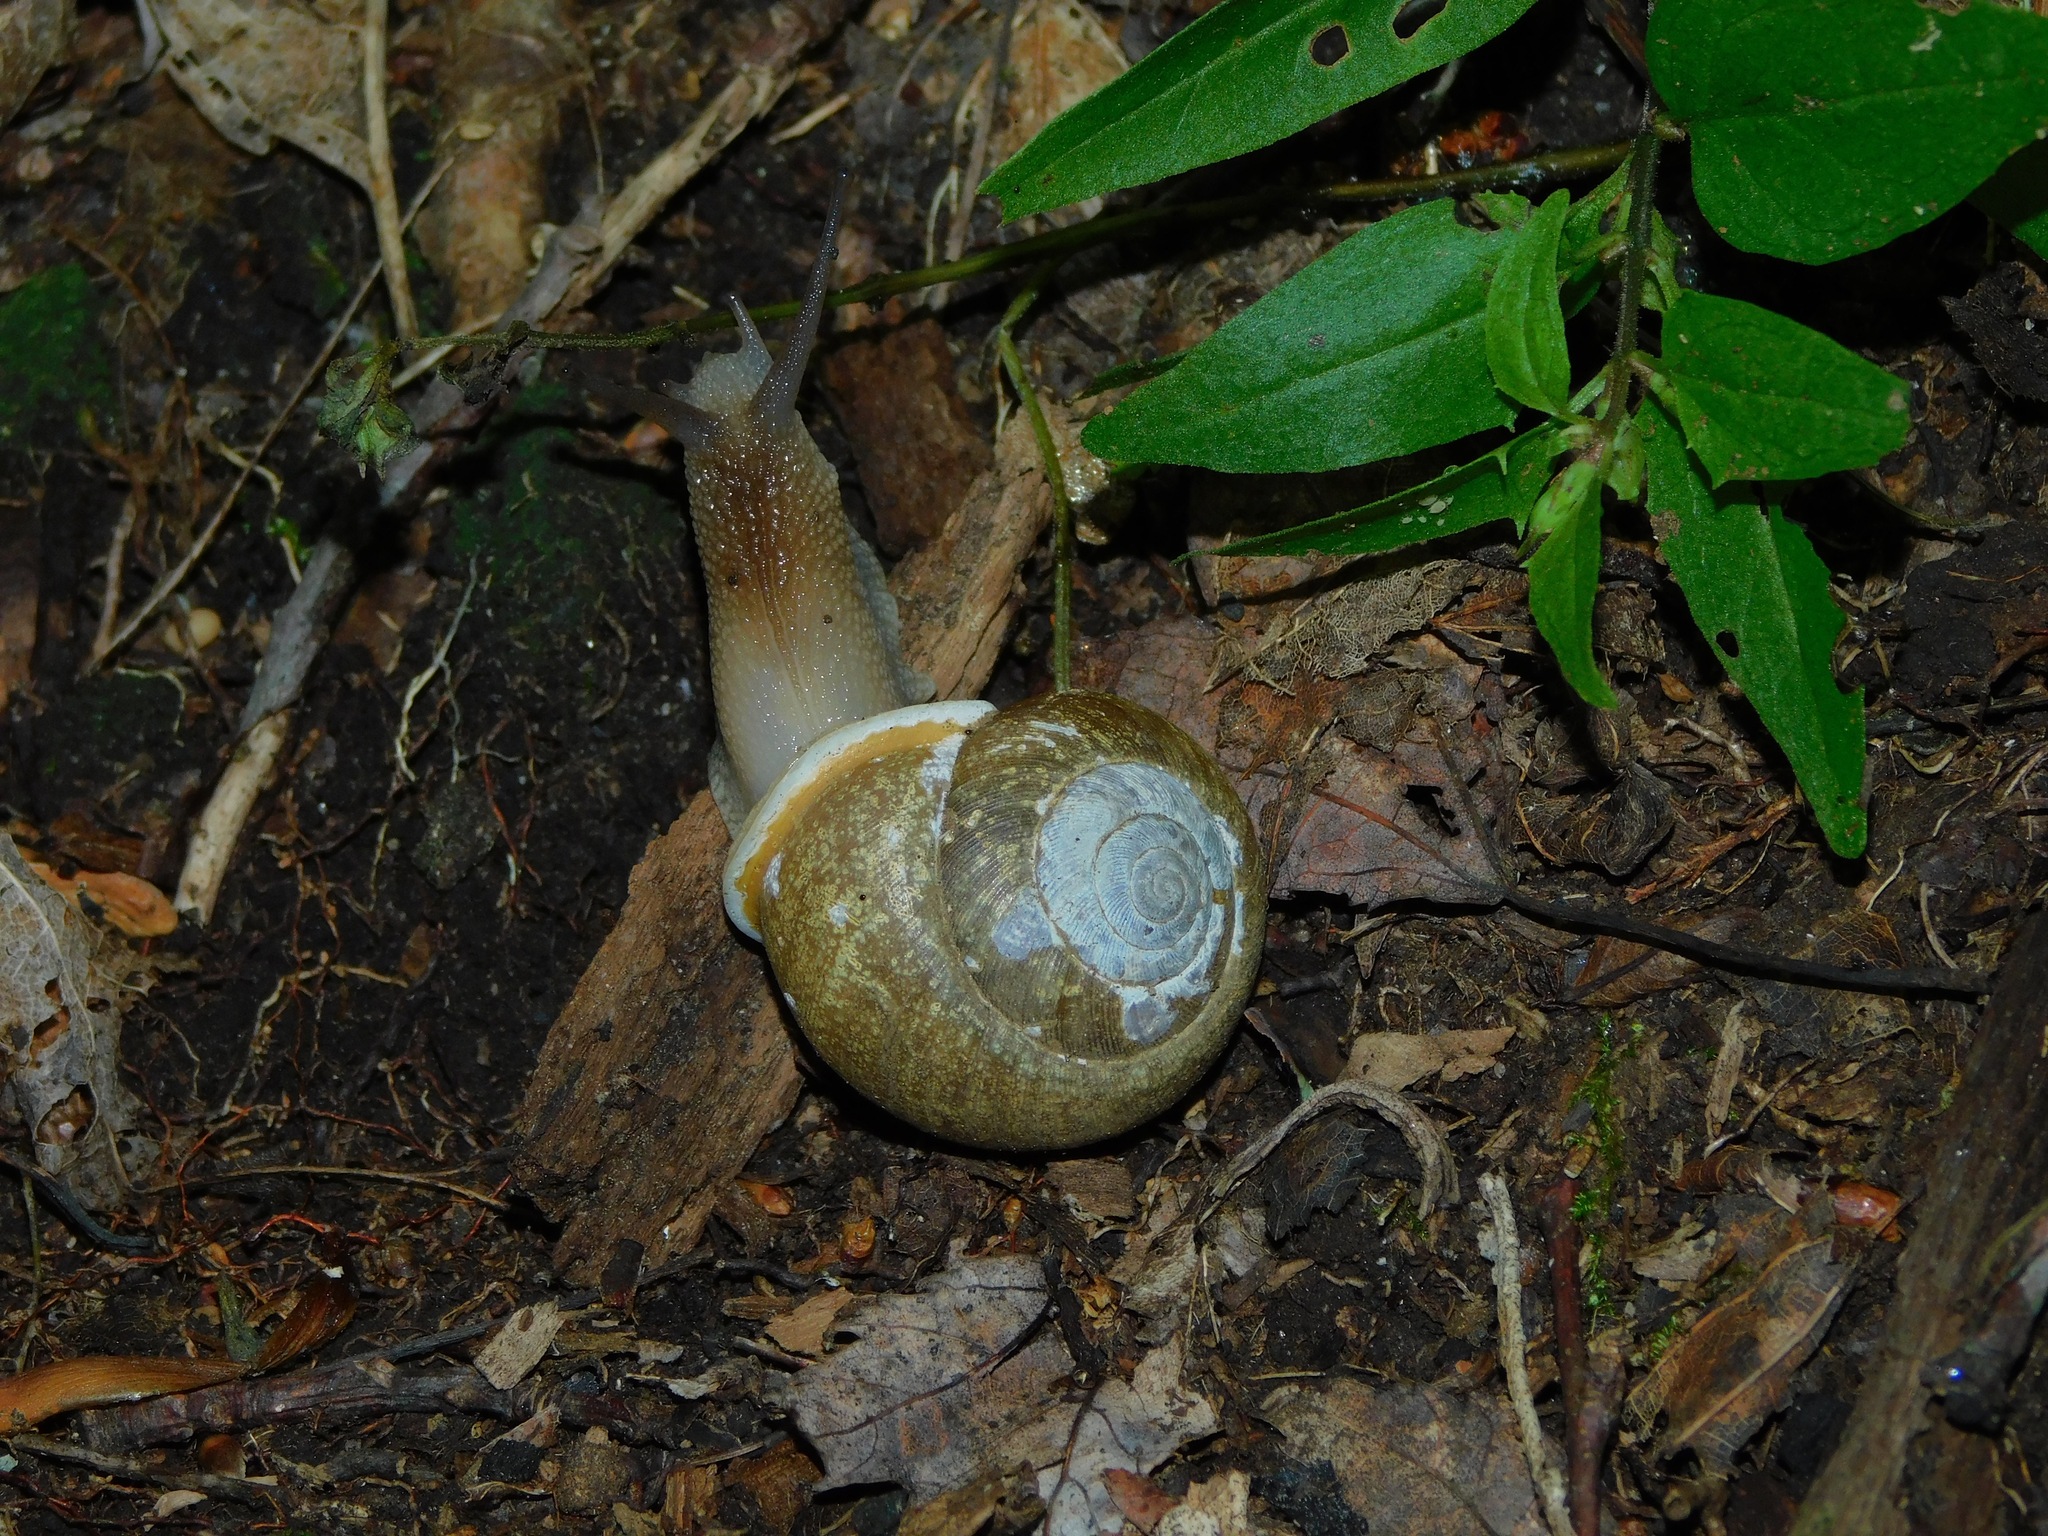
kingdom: Animalia
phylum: Mollusca
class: Gastropoda
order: Stylommatophora
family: Polygyridae
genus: Mesodon
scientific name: Mesodon normalis
